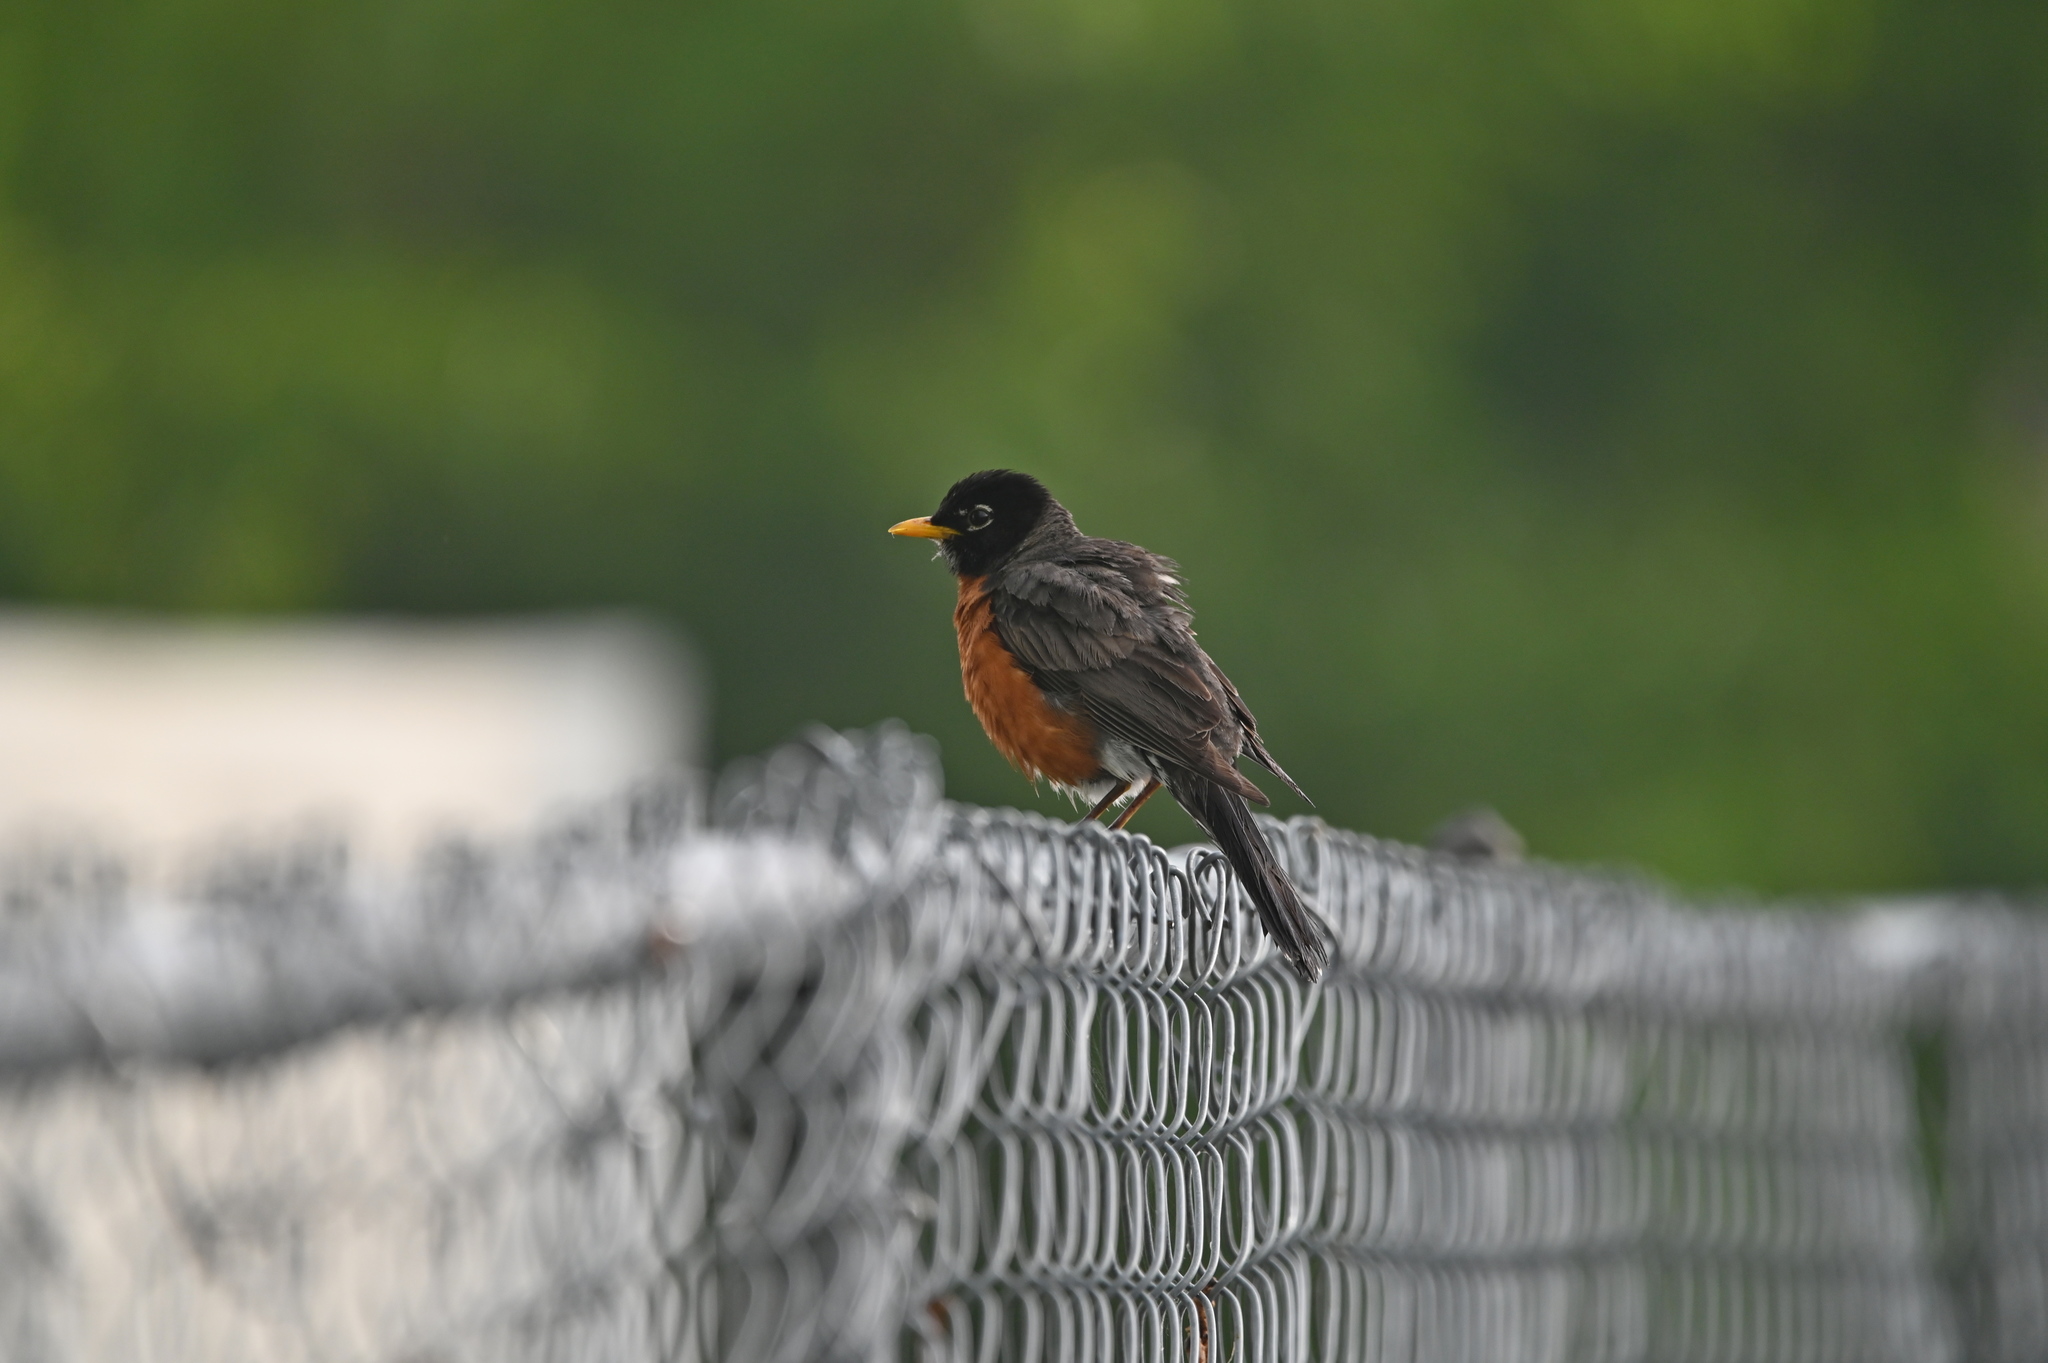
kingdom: Animalia
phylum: Chordata
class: Aves
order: Passeriformes
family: Turdidae
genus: Turdus
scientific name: Turdus migratorius
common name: American robin
